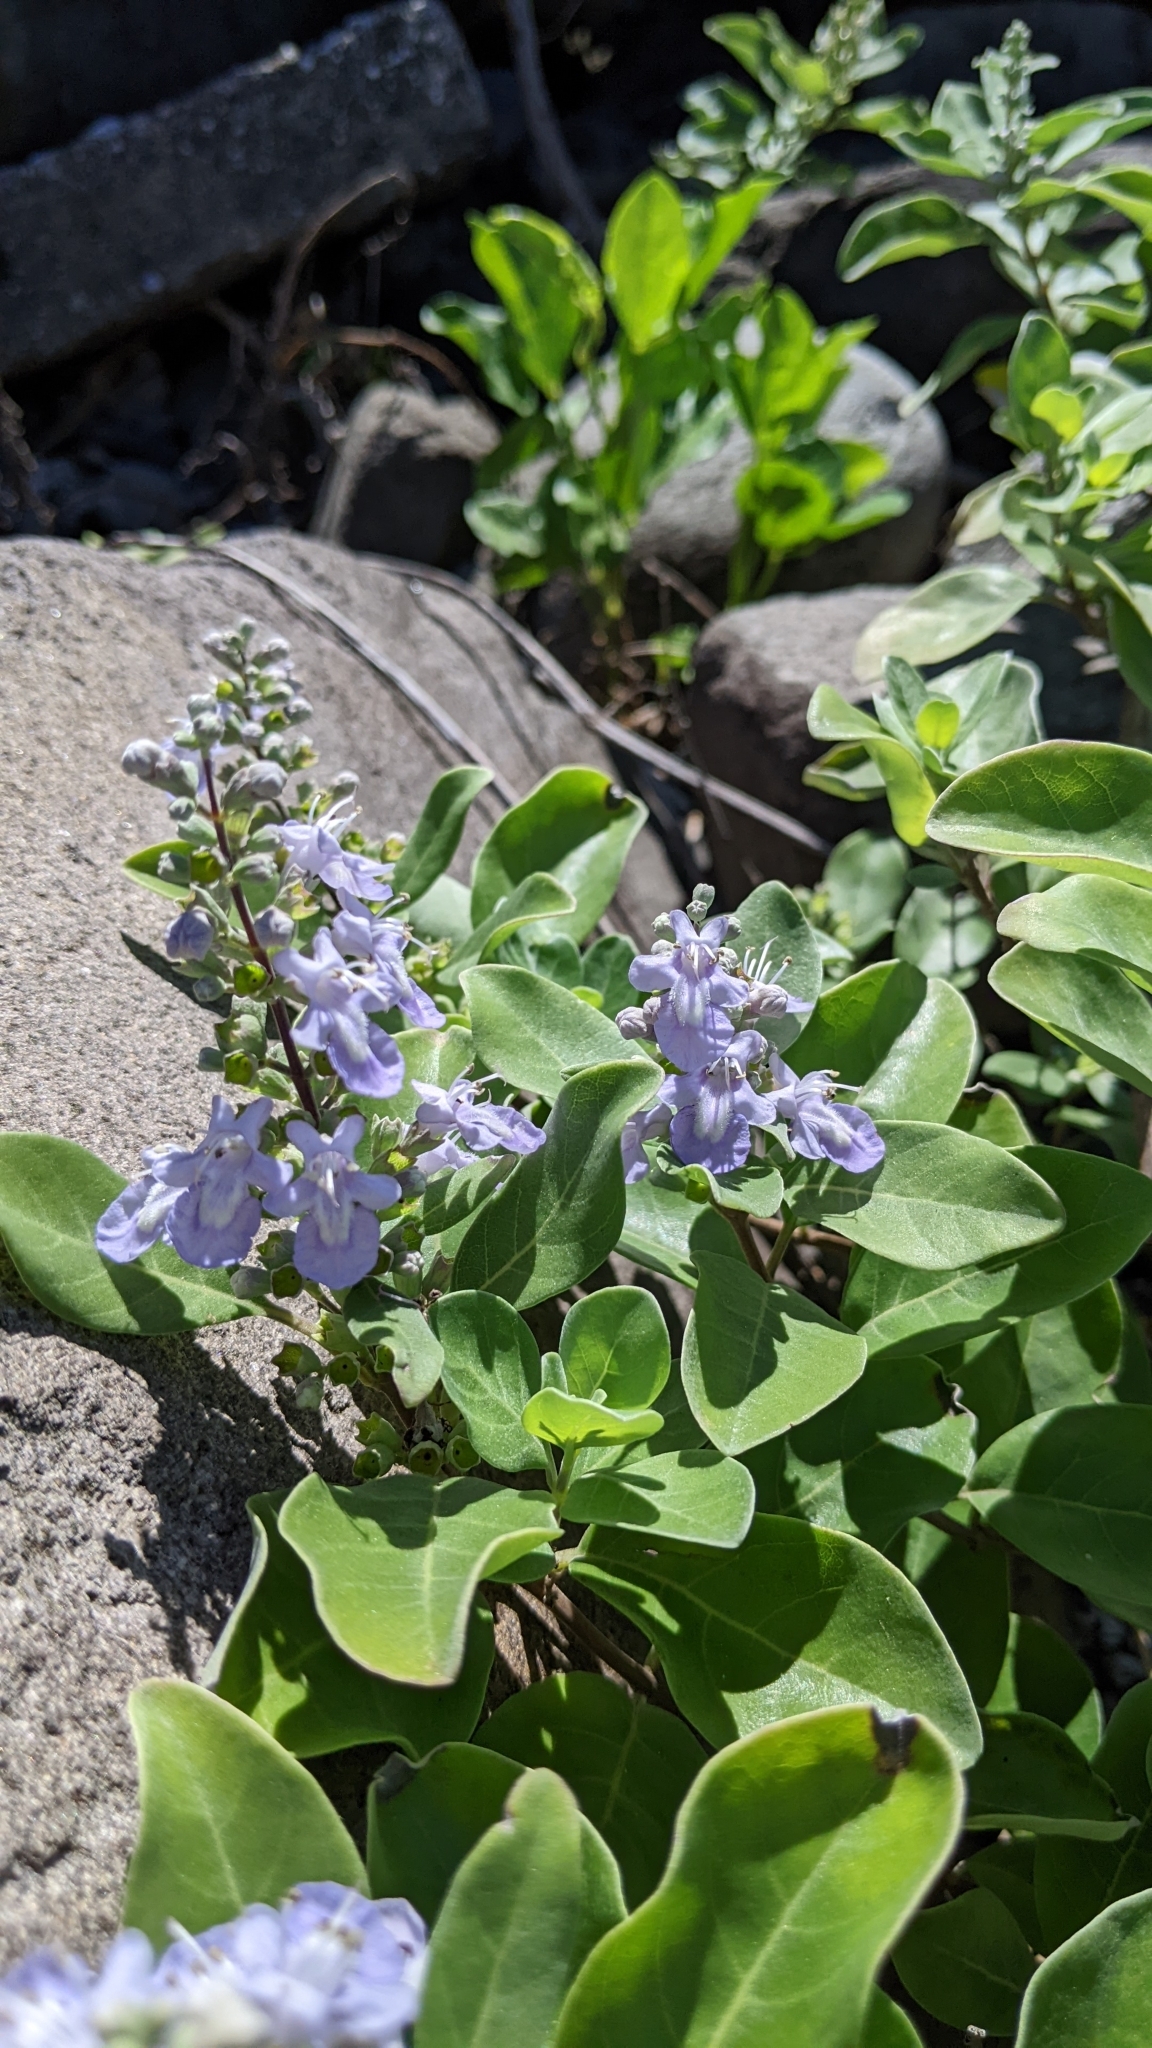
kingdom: Plantae
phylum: Tracheophyta
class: Magnoliopsida
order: Lamiales
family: Lamiaceae
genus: Vitex
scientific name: Vitex rotundifolia
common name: Beach vitex
